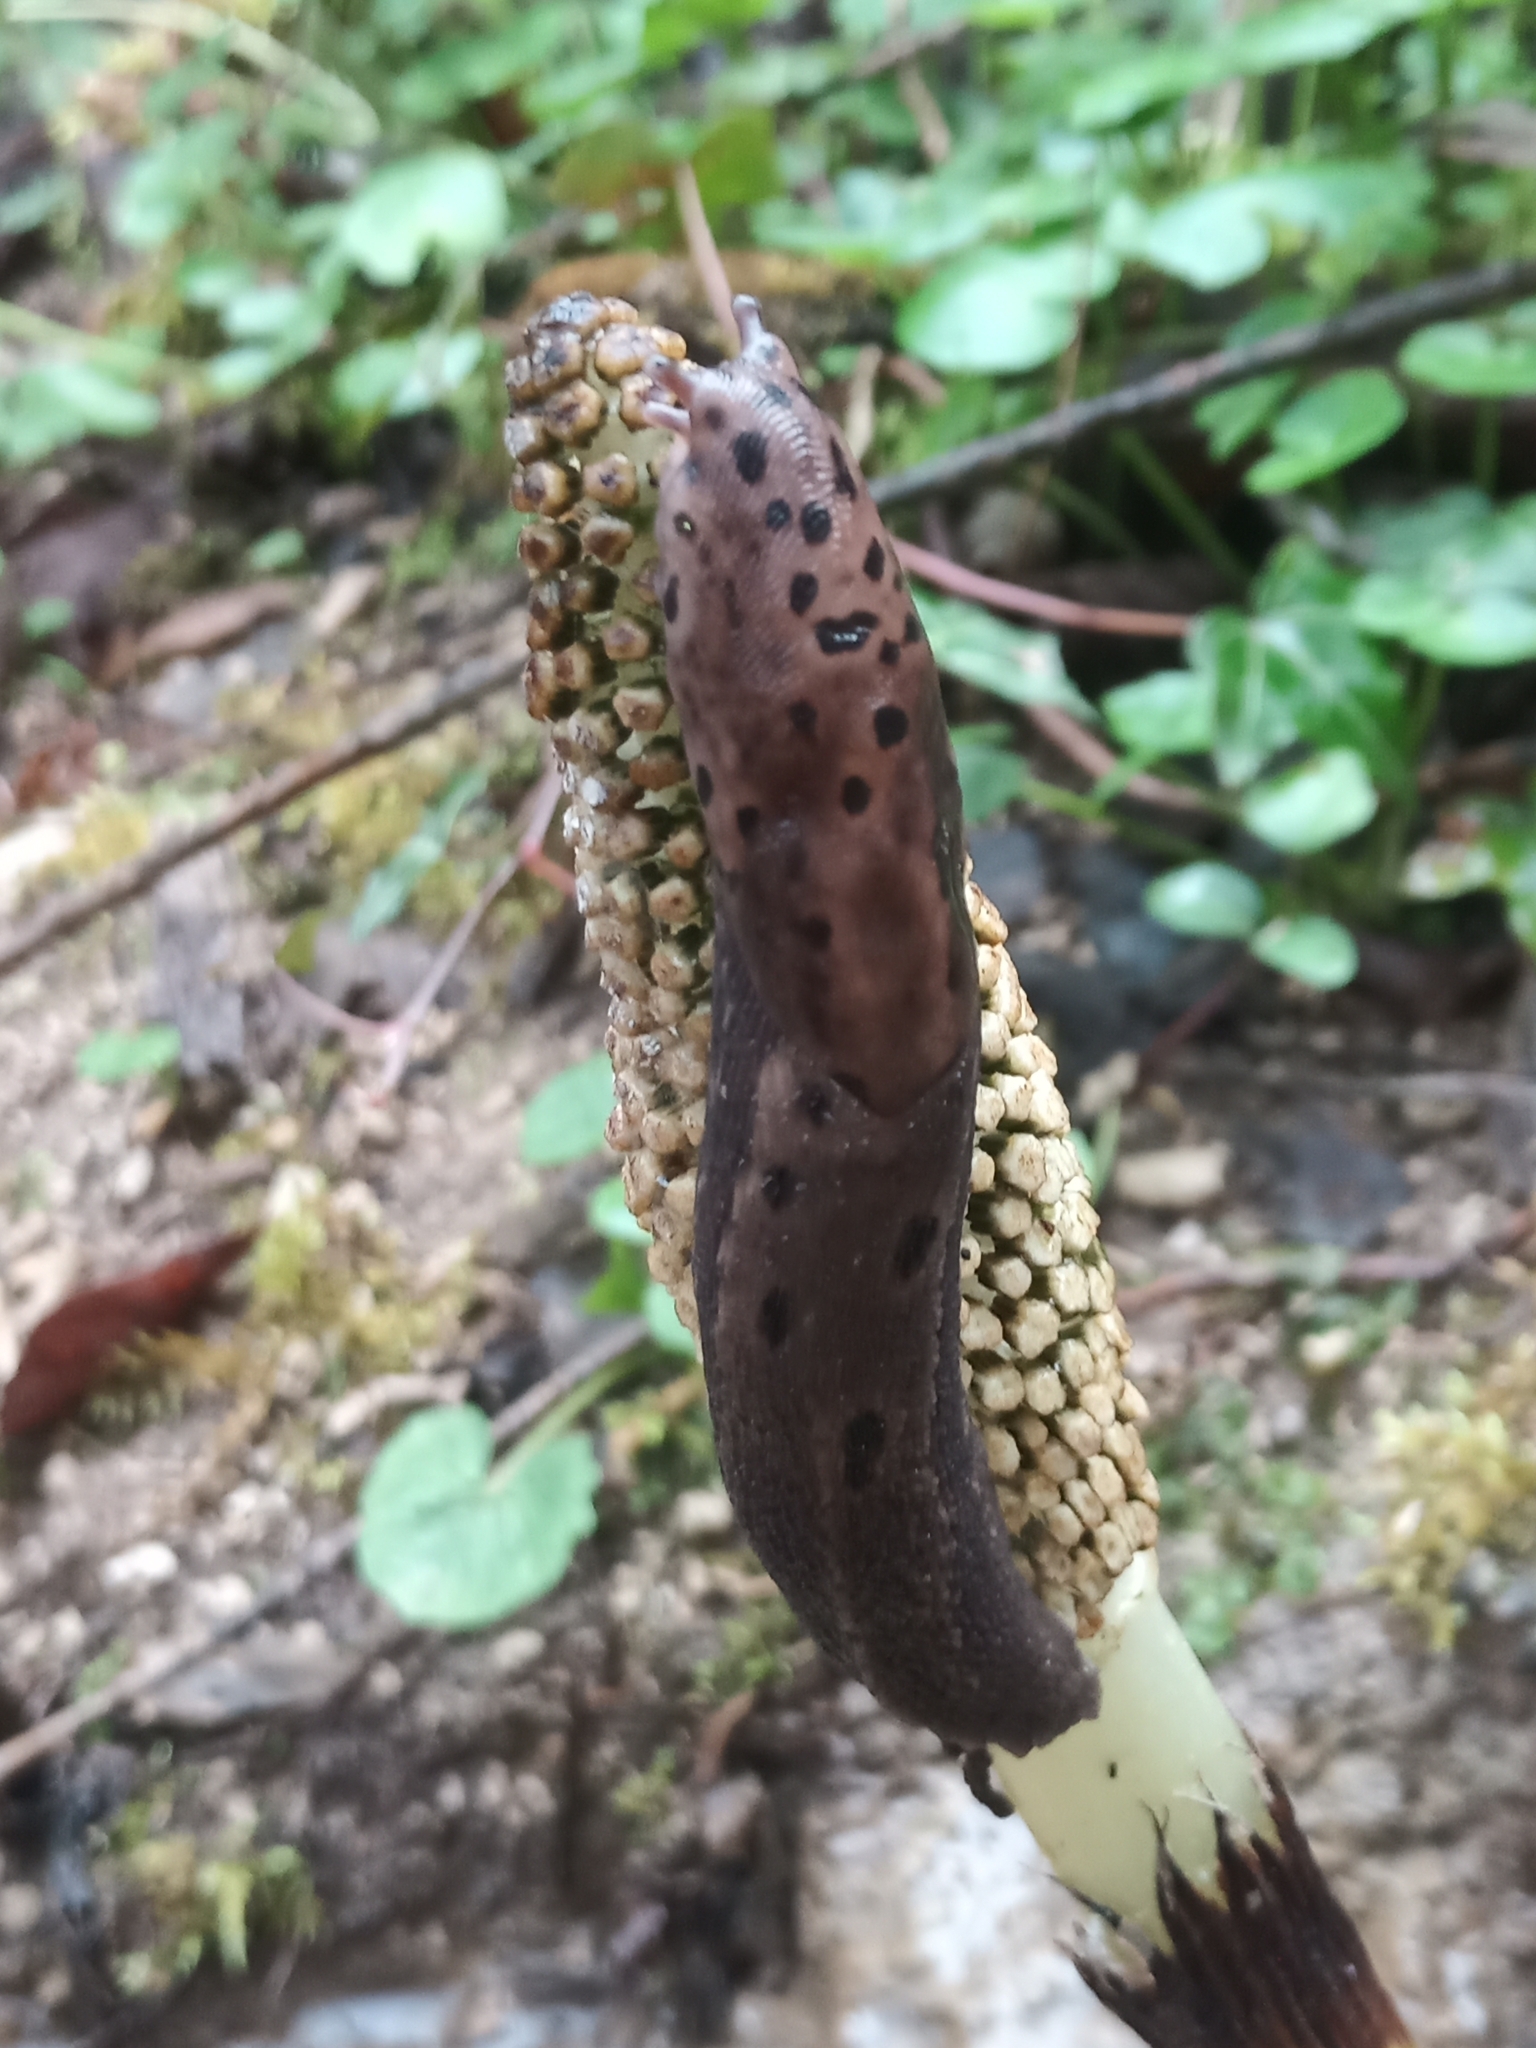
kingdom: Animalia
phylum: Mollusca
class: Gastropoda
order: Stylommatophora
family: Limacidae
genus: Limax
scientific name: Limax maximus
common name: Great grey slug
